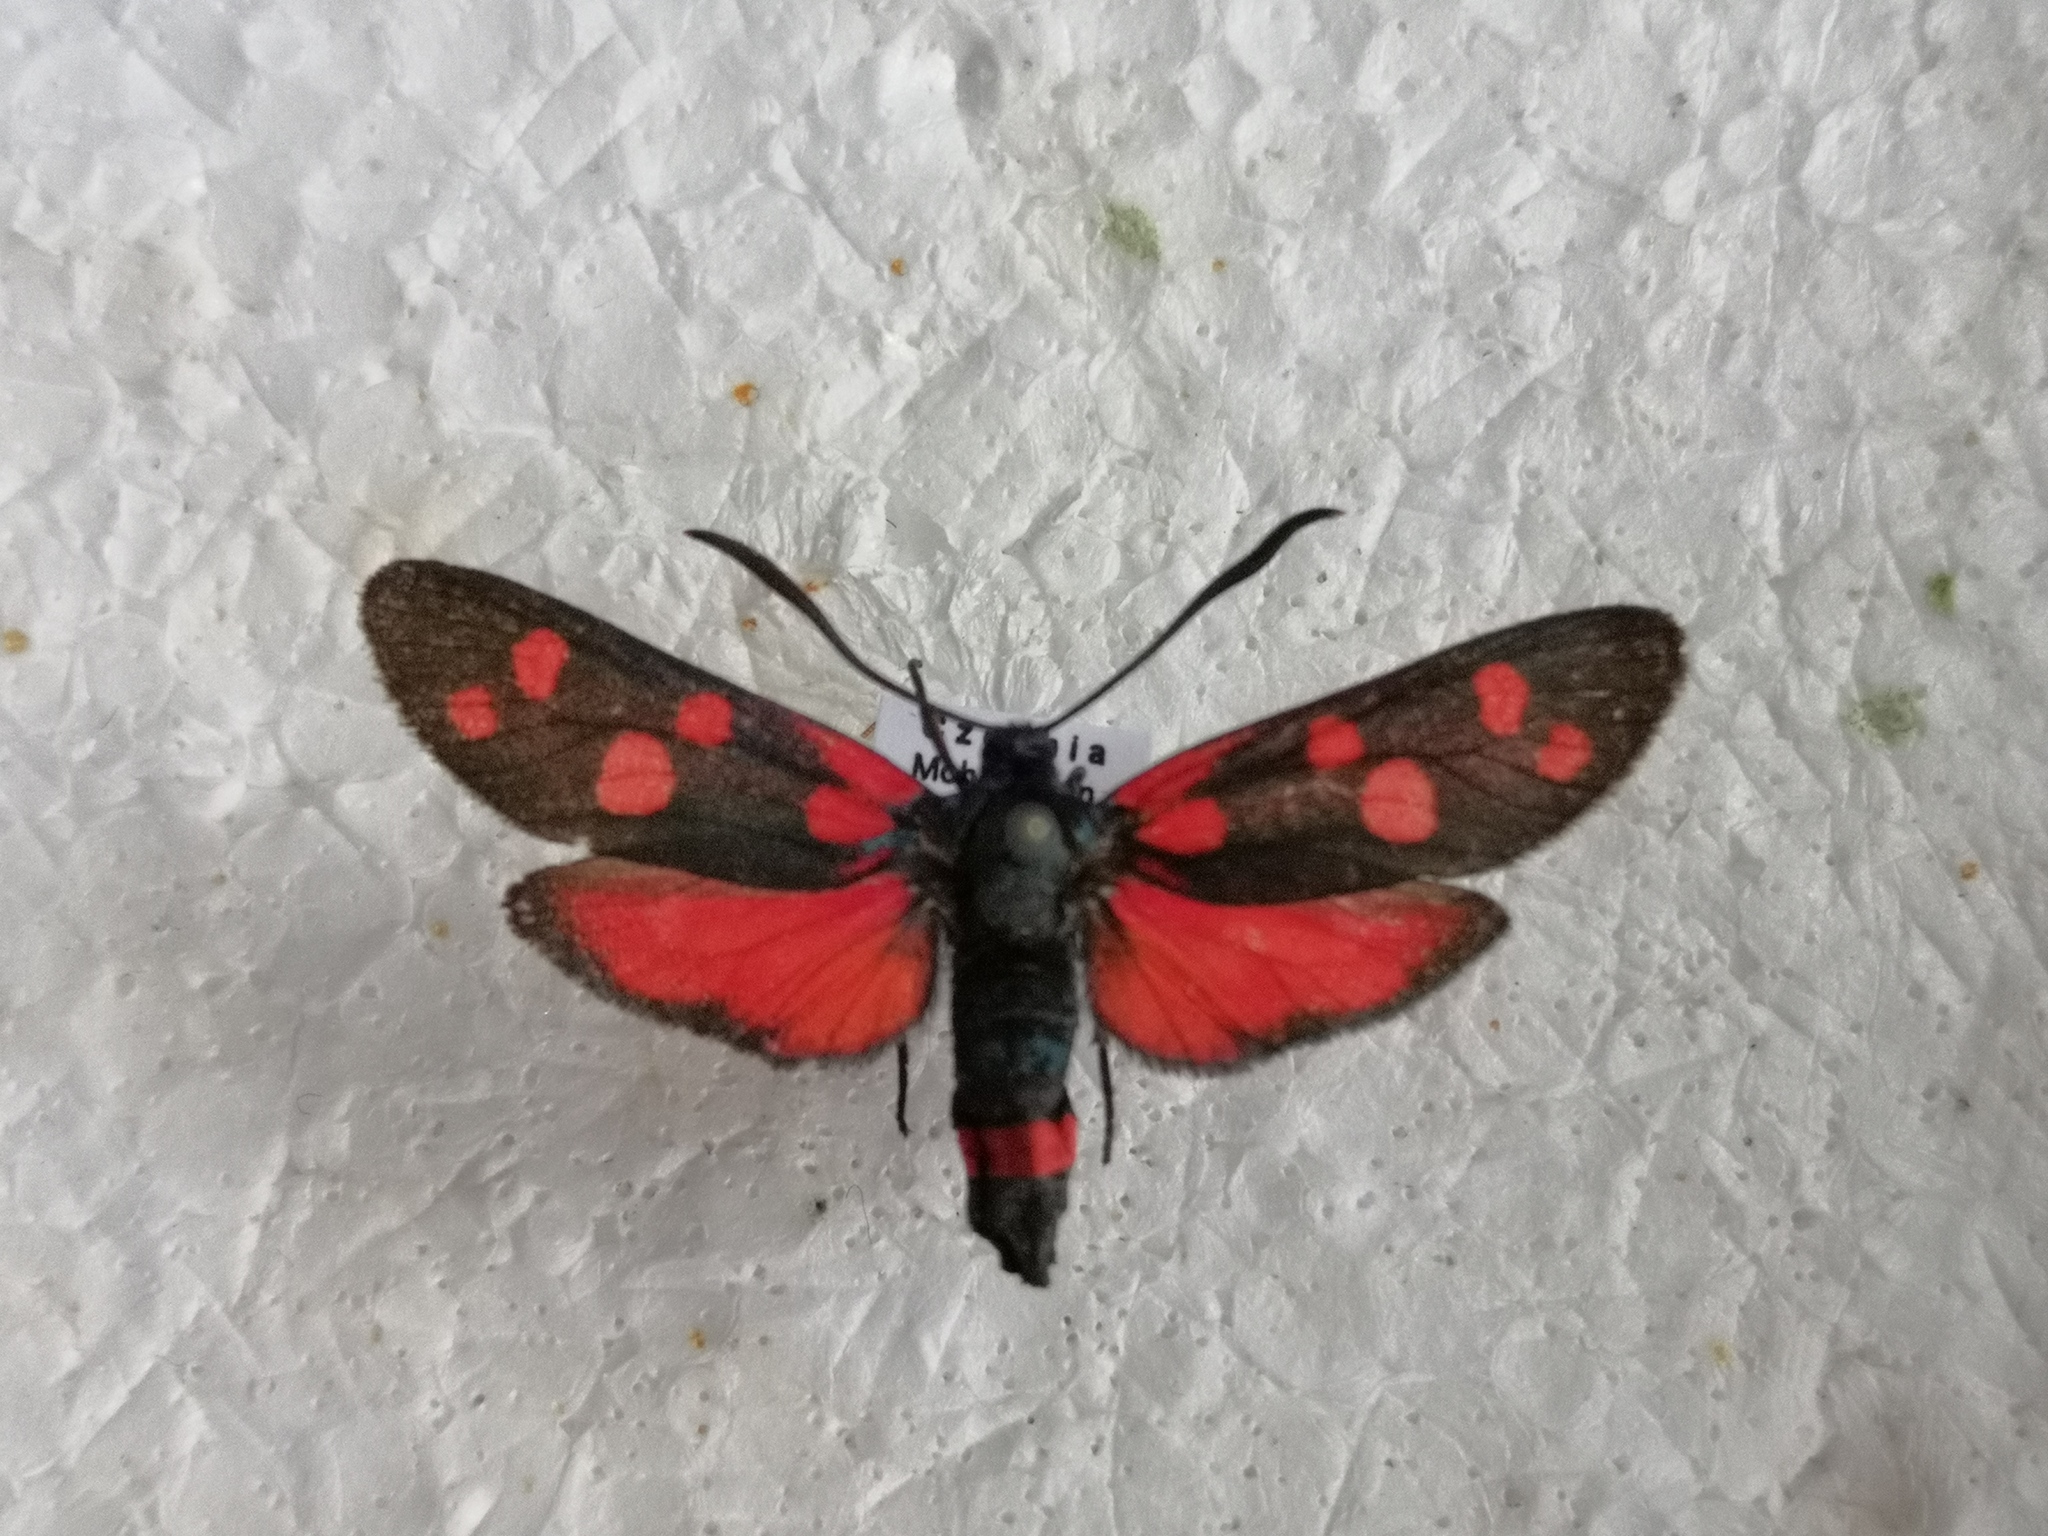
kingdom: Animalia
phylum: Arthropoda
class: Insecta
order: Lepidoptera
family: Zygaenidae
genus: Zygaena
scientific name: Zygaena ephialtes
